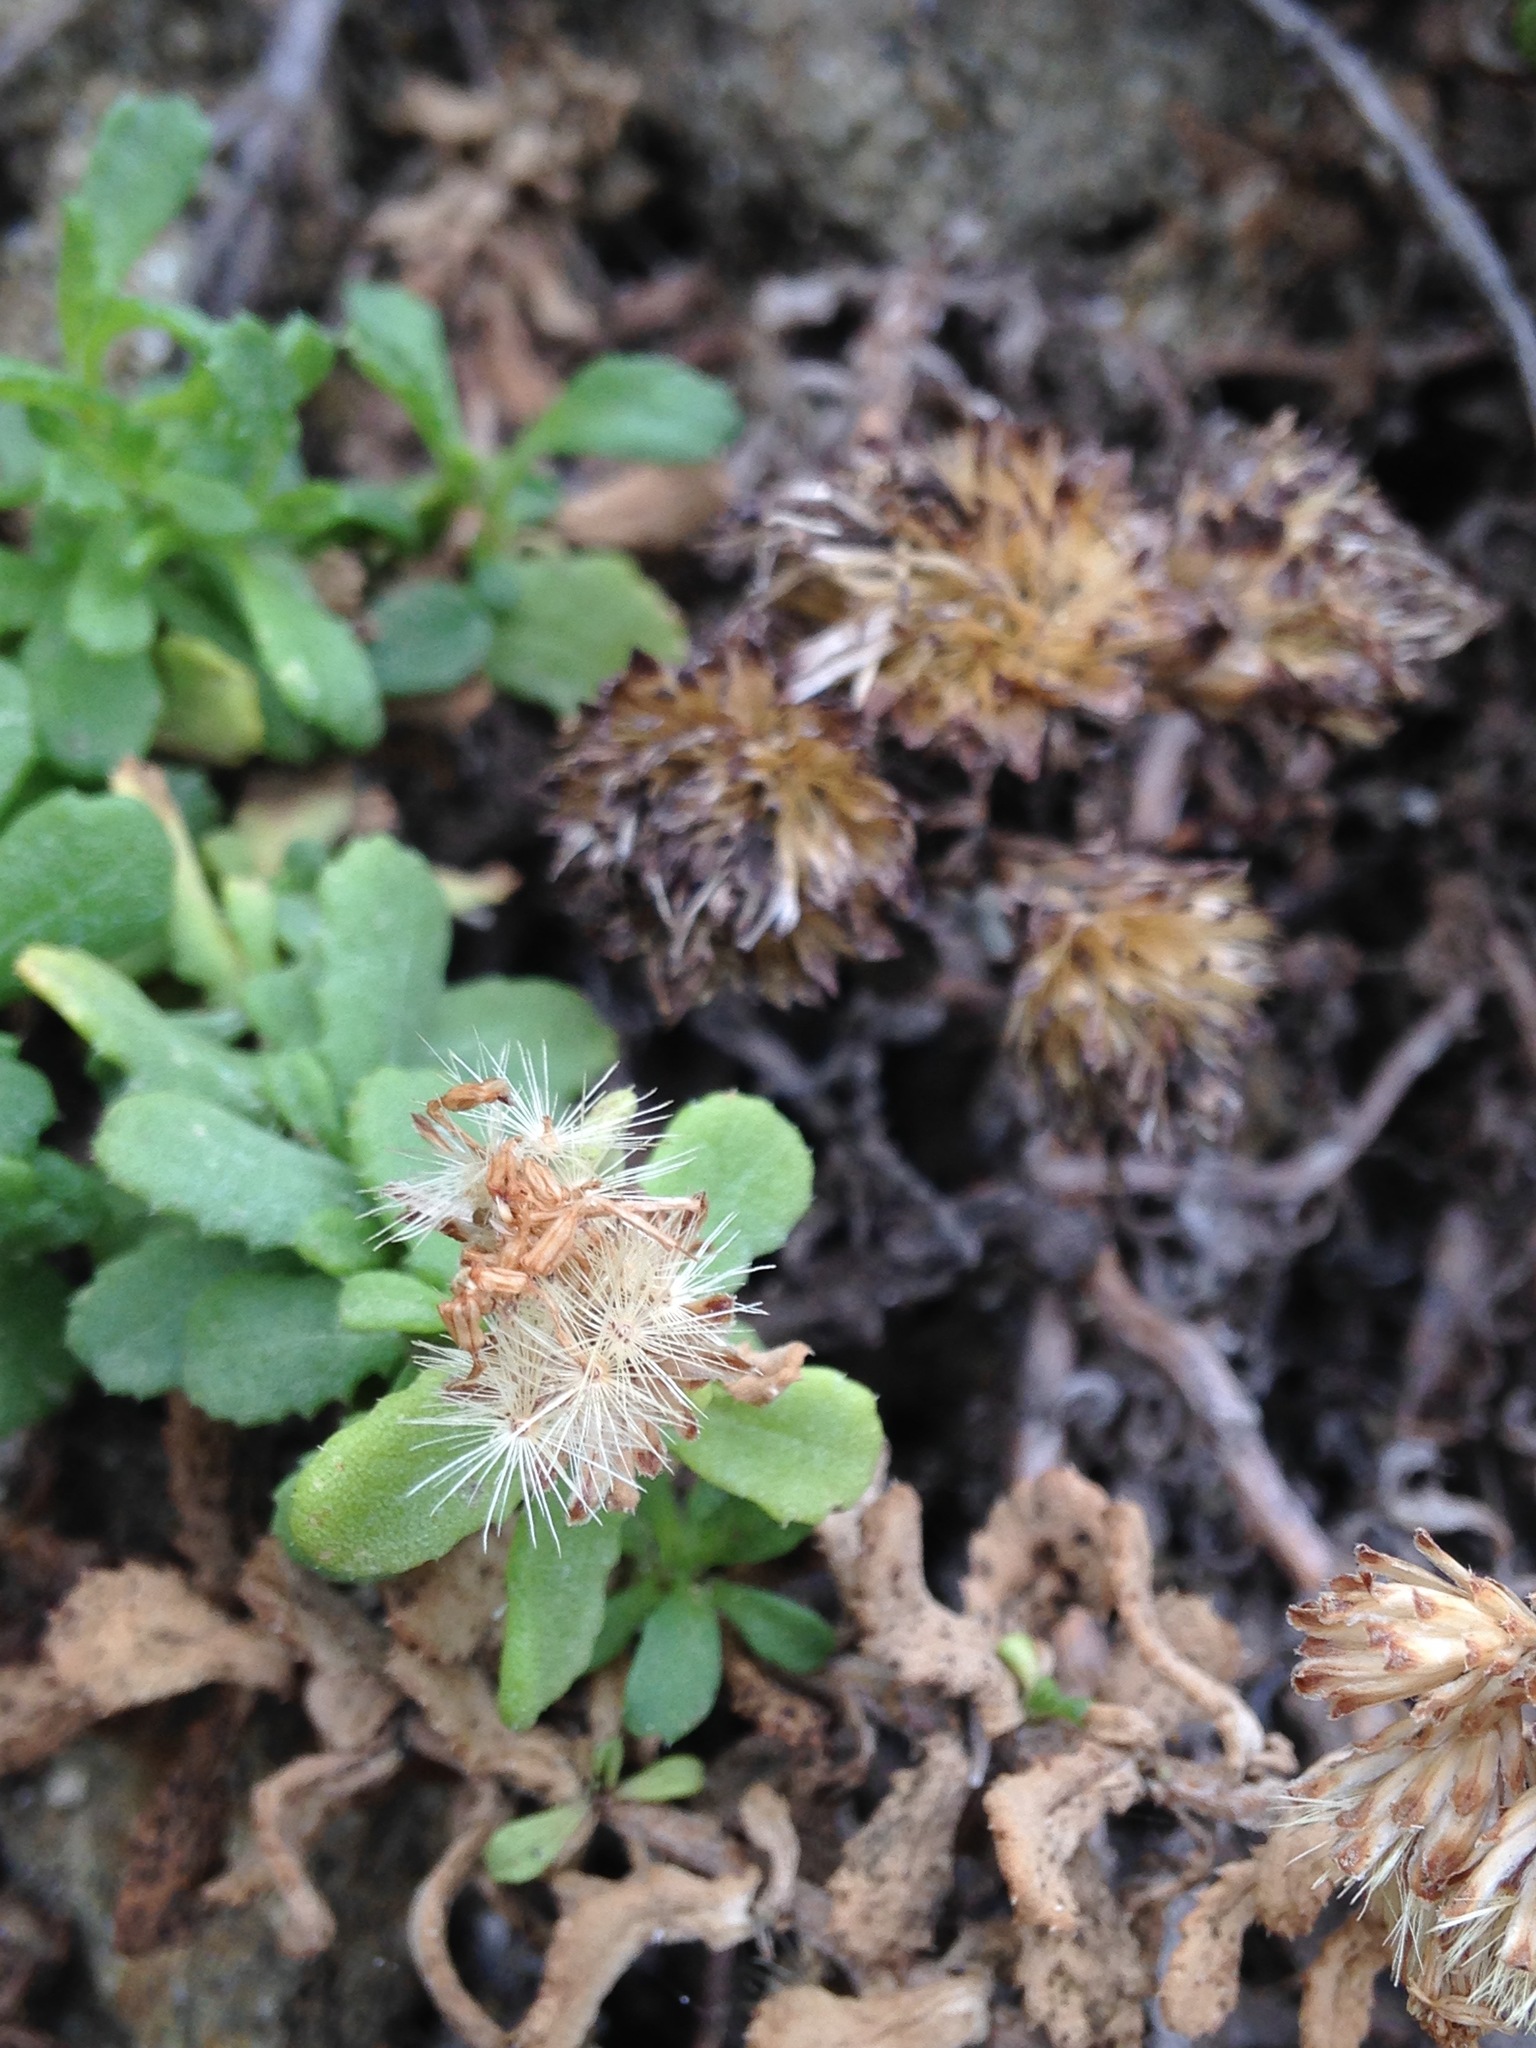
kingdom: Plantae
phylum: Tracheophyta
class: Magnoliopsida
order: Asterales
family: Asteraceae
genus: Isocoma
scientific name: Isocoma menziesii
